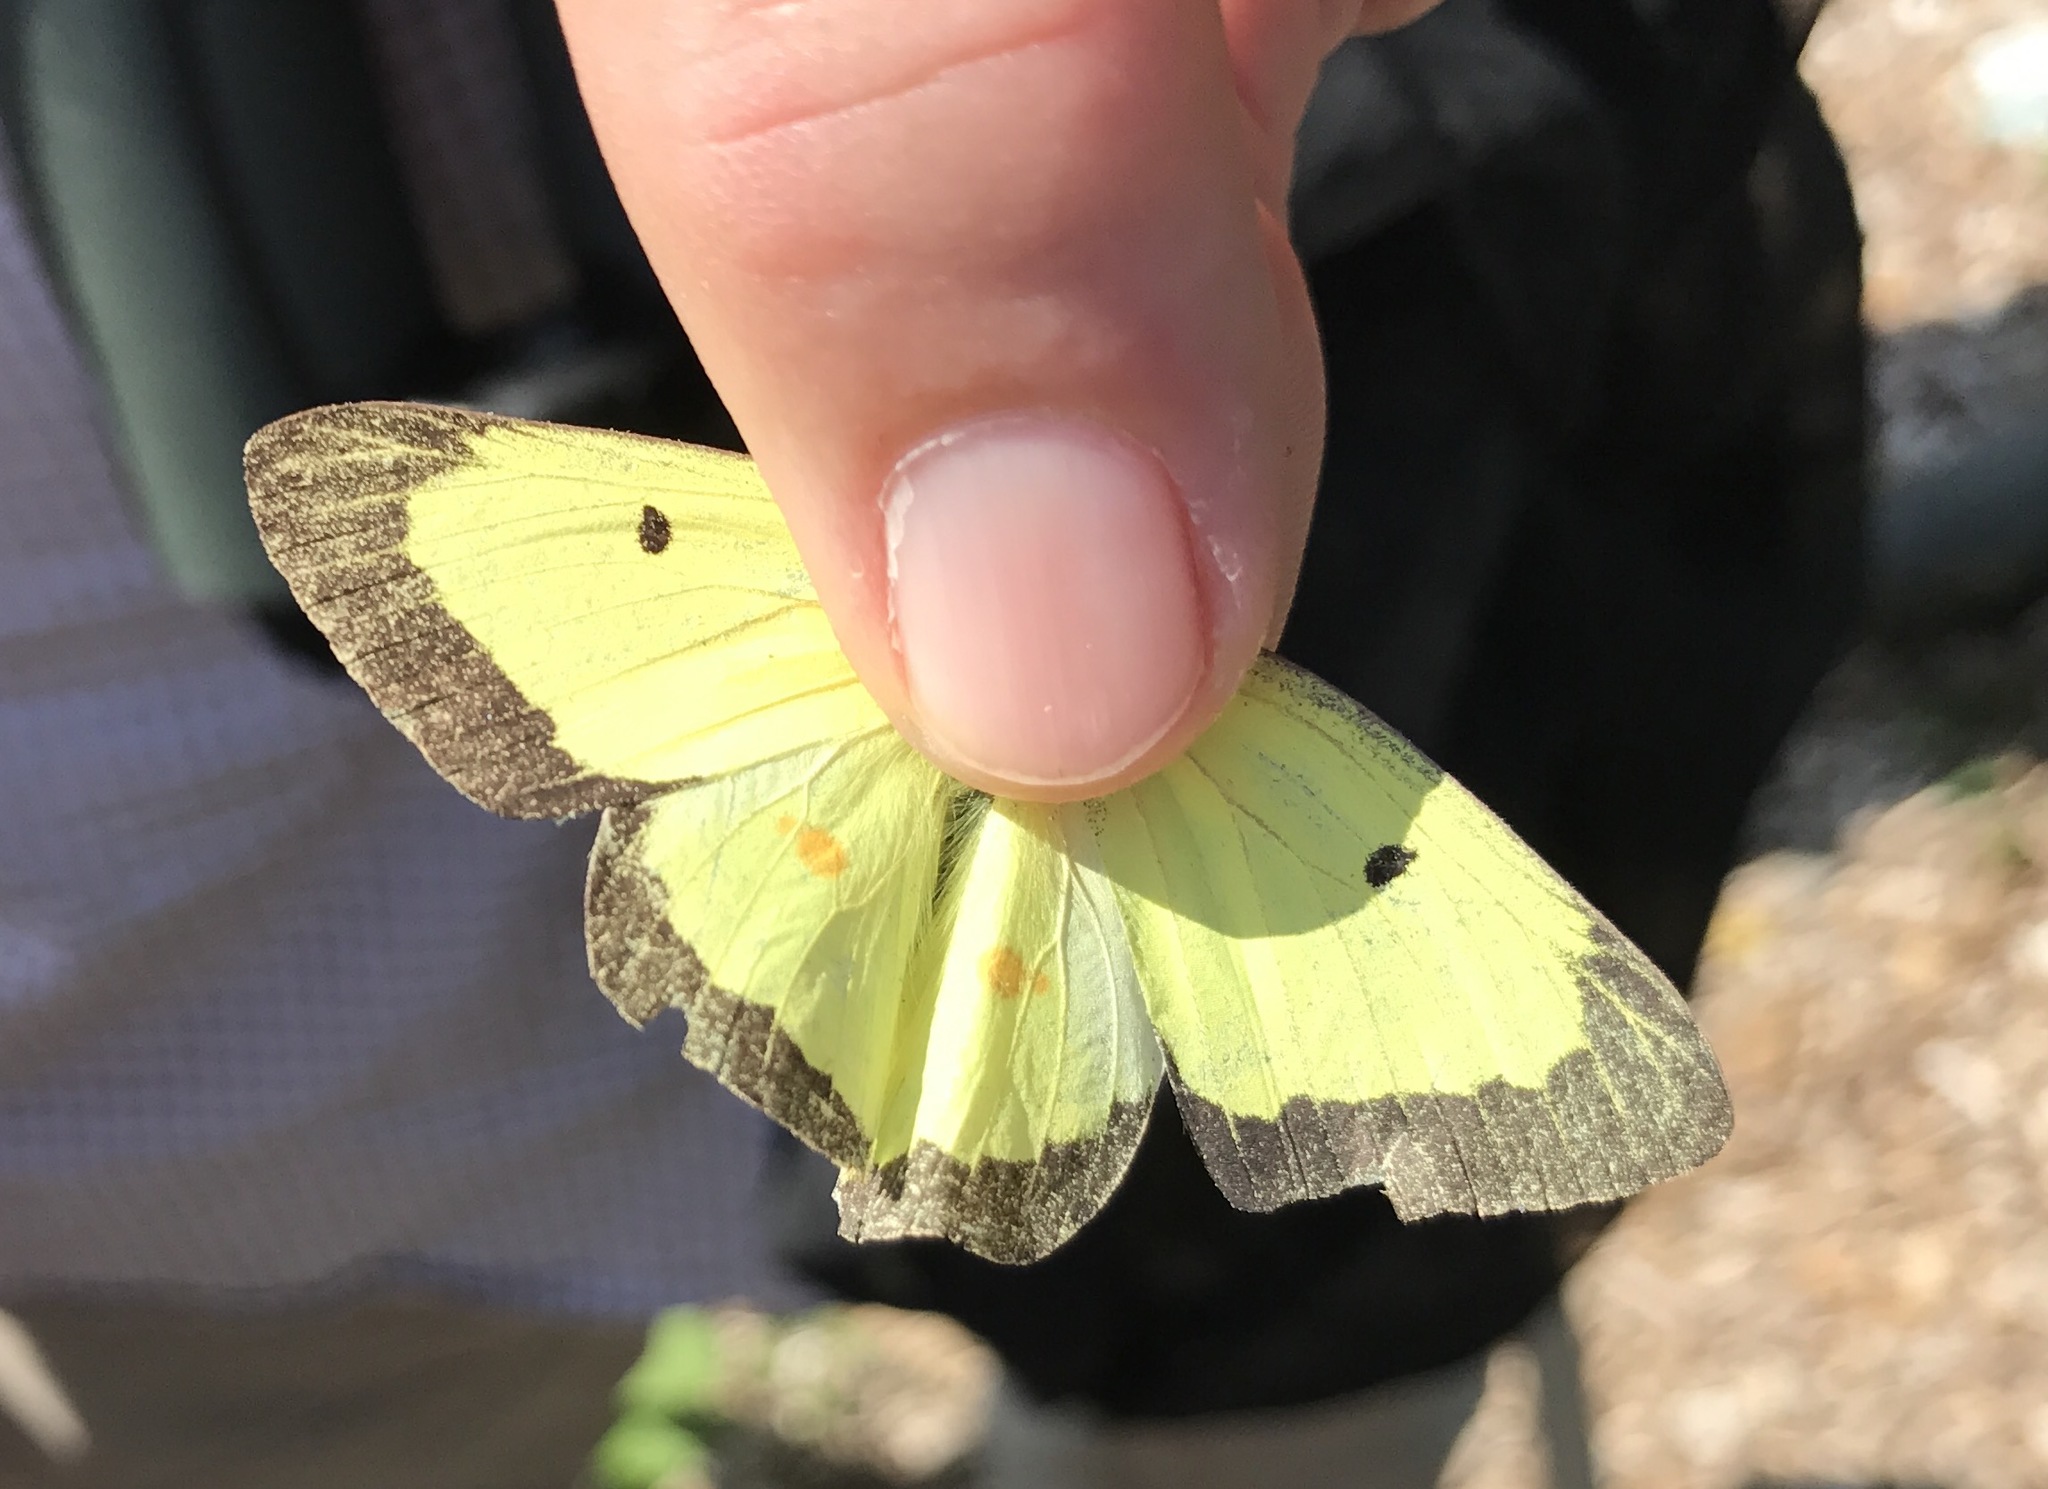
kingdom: Animalia
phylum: Arthropoda
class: Insecta
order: Lepidoptera
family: Pieridae
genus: Colias
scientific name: Colias philodice
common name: Clouded sulphur
